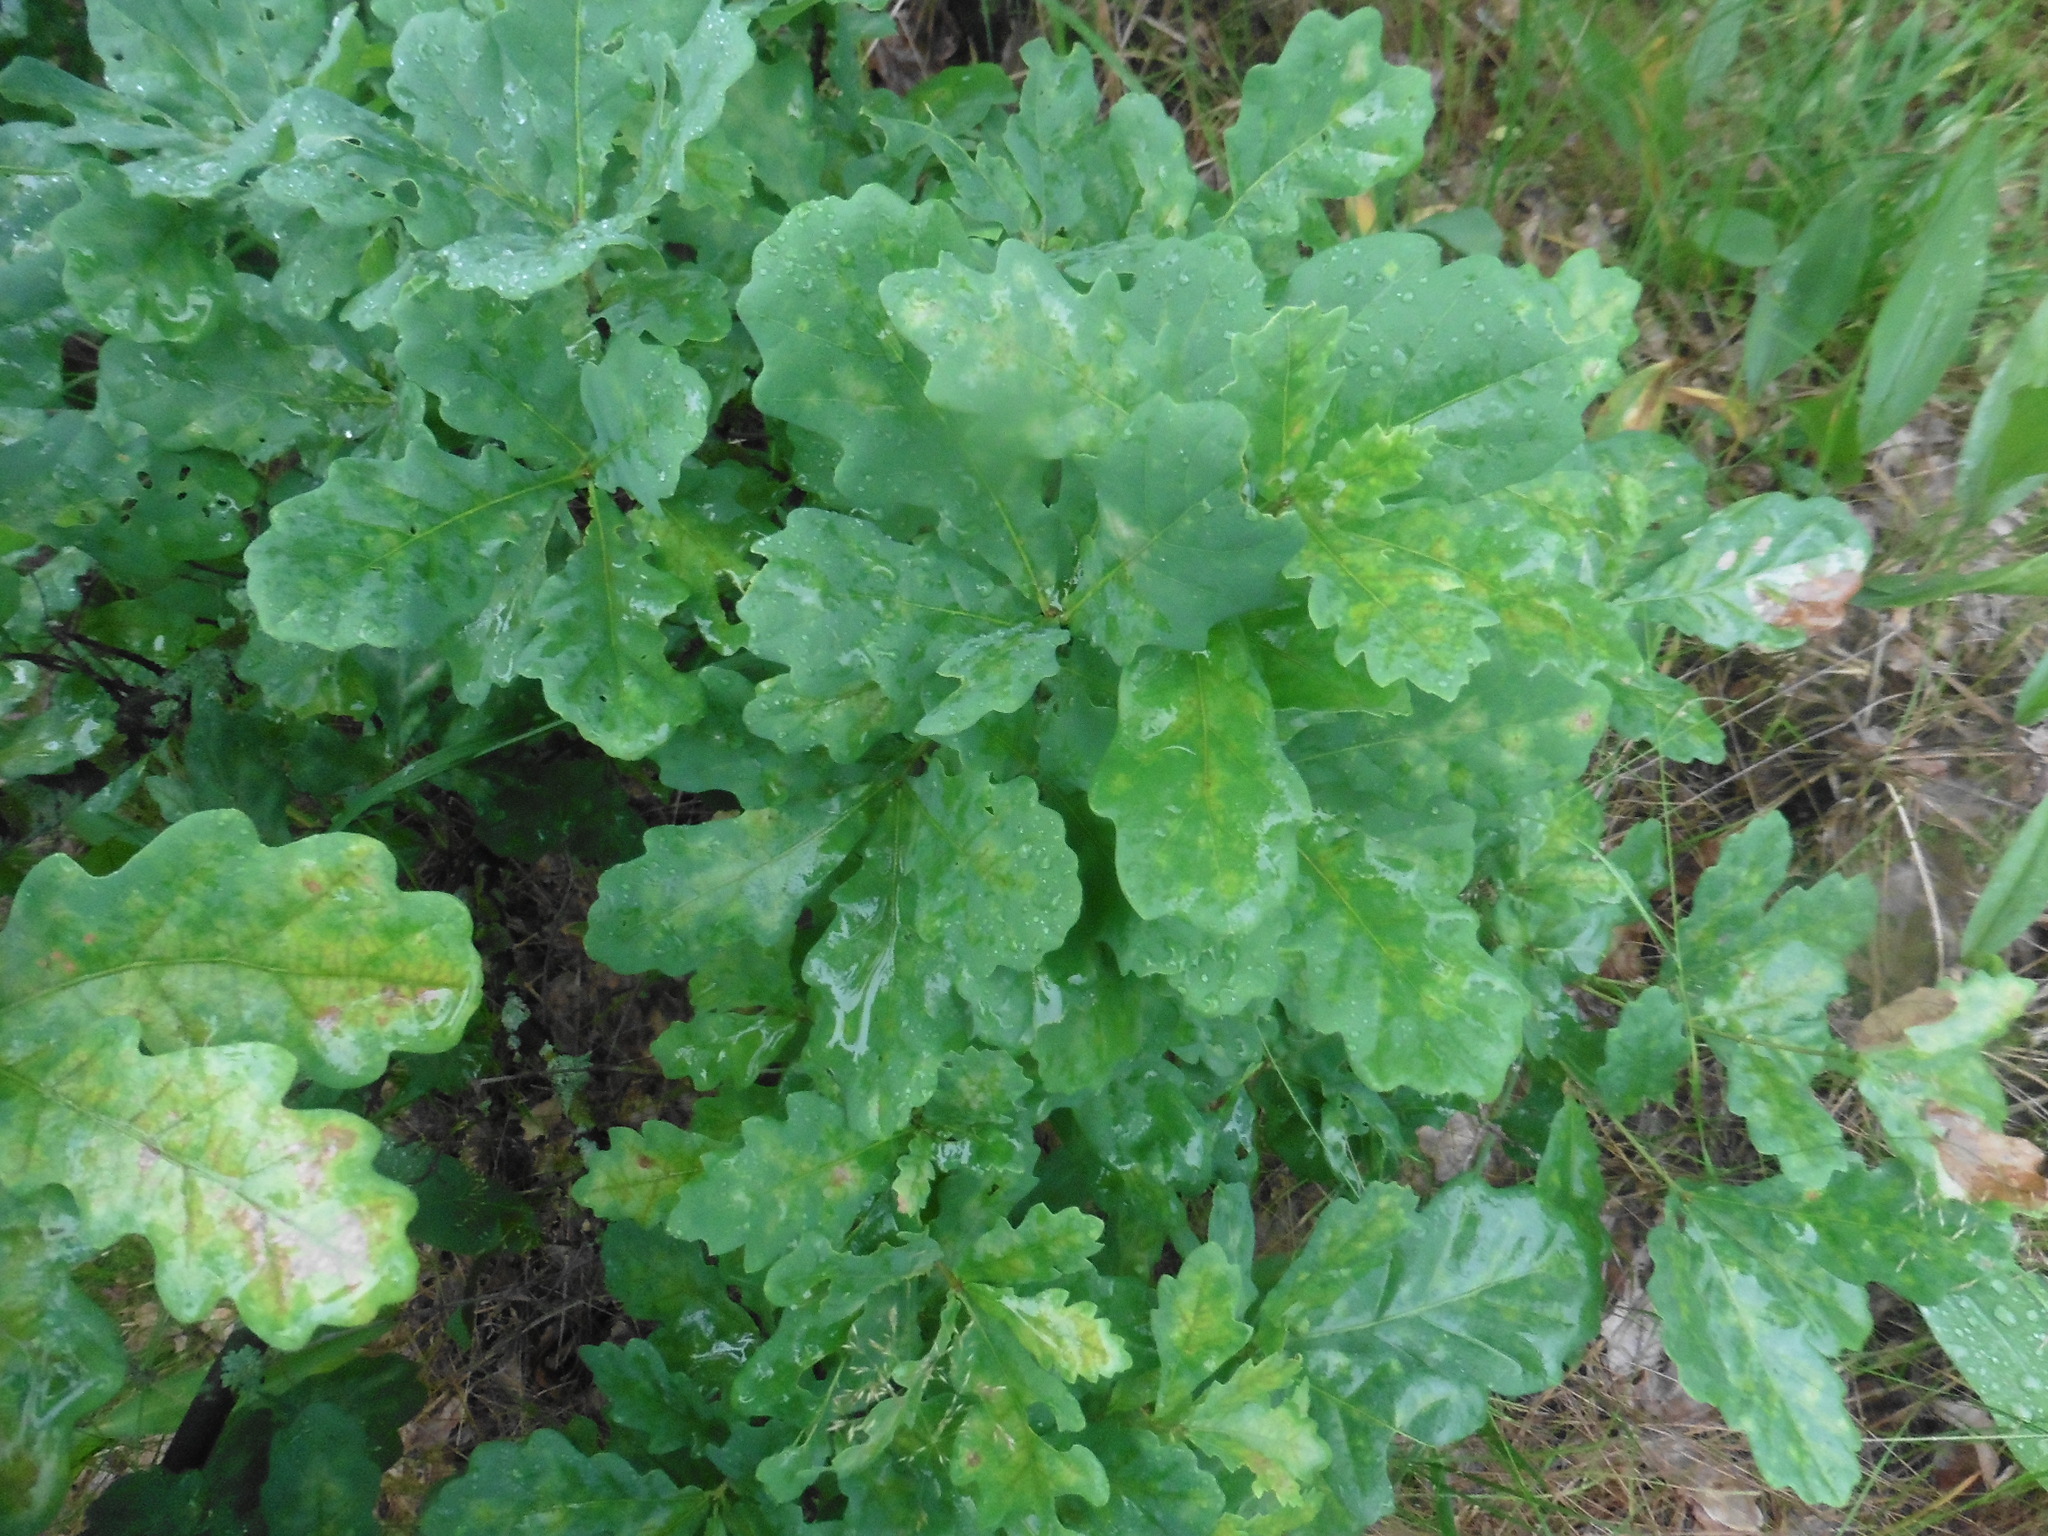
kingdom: Plantae
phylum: Tracheophyta
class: Magnoliopsida
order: Fagales
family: Fagaceae
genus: Quercus
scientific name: Quercus robur
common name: Pedunculate oak
